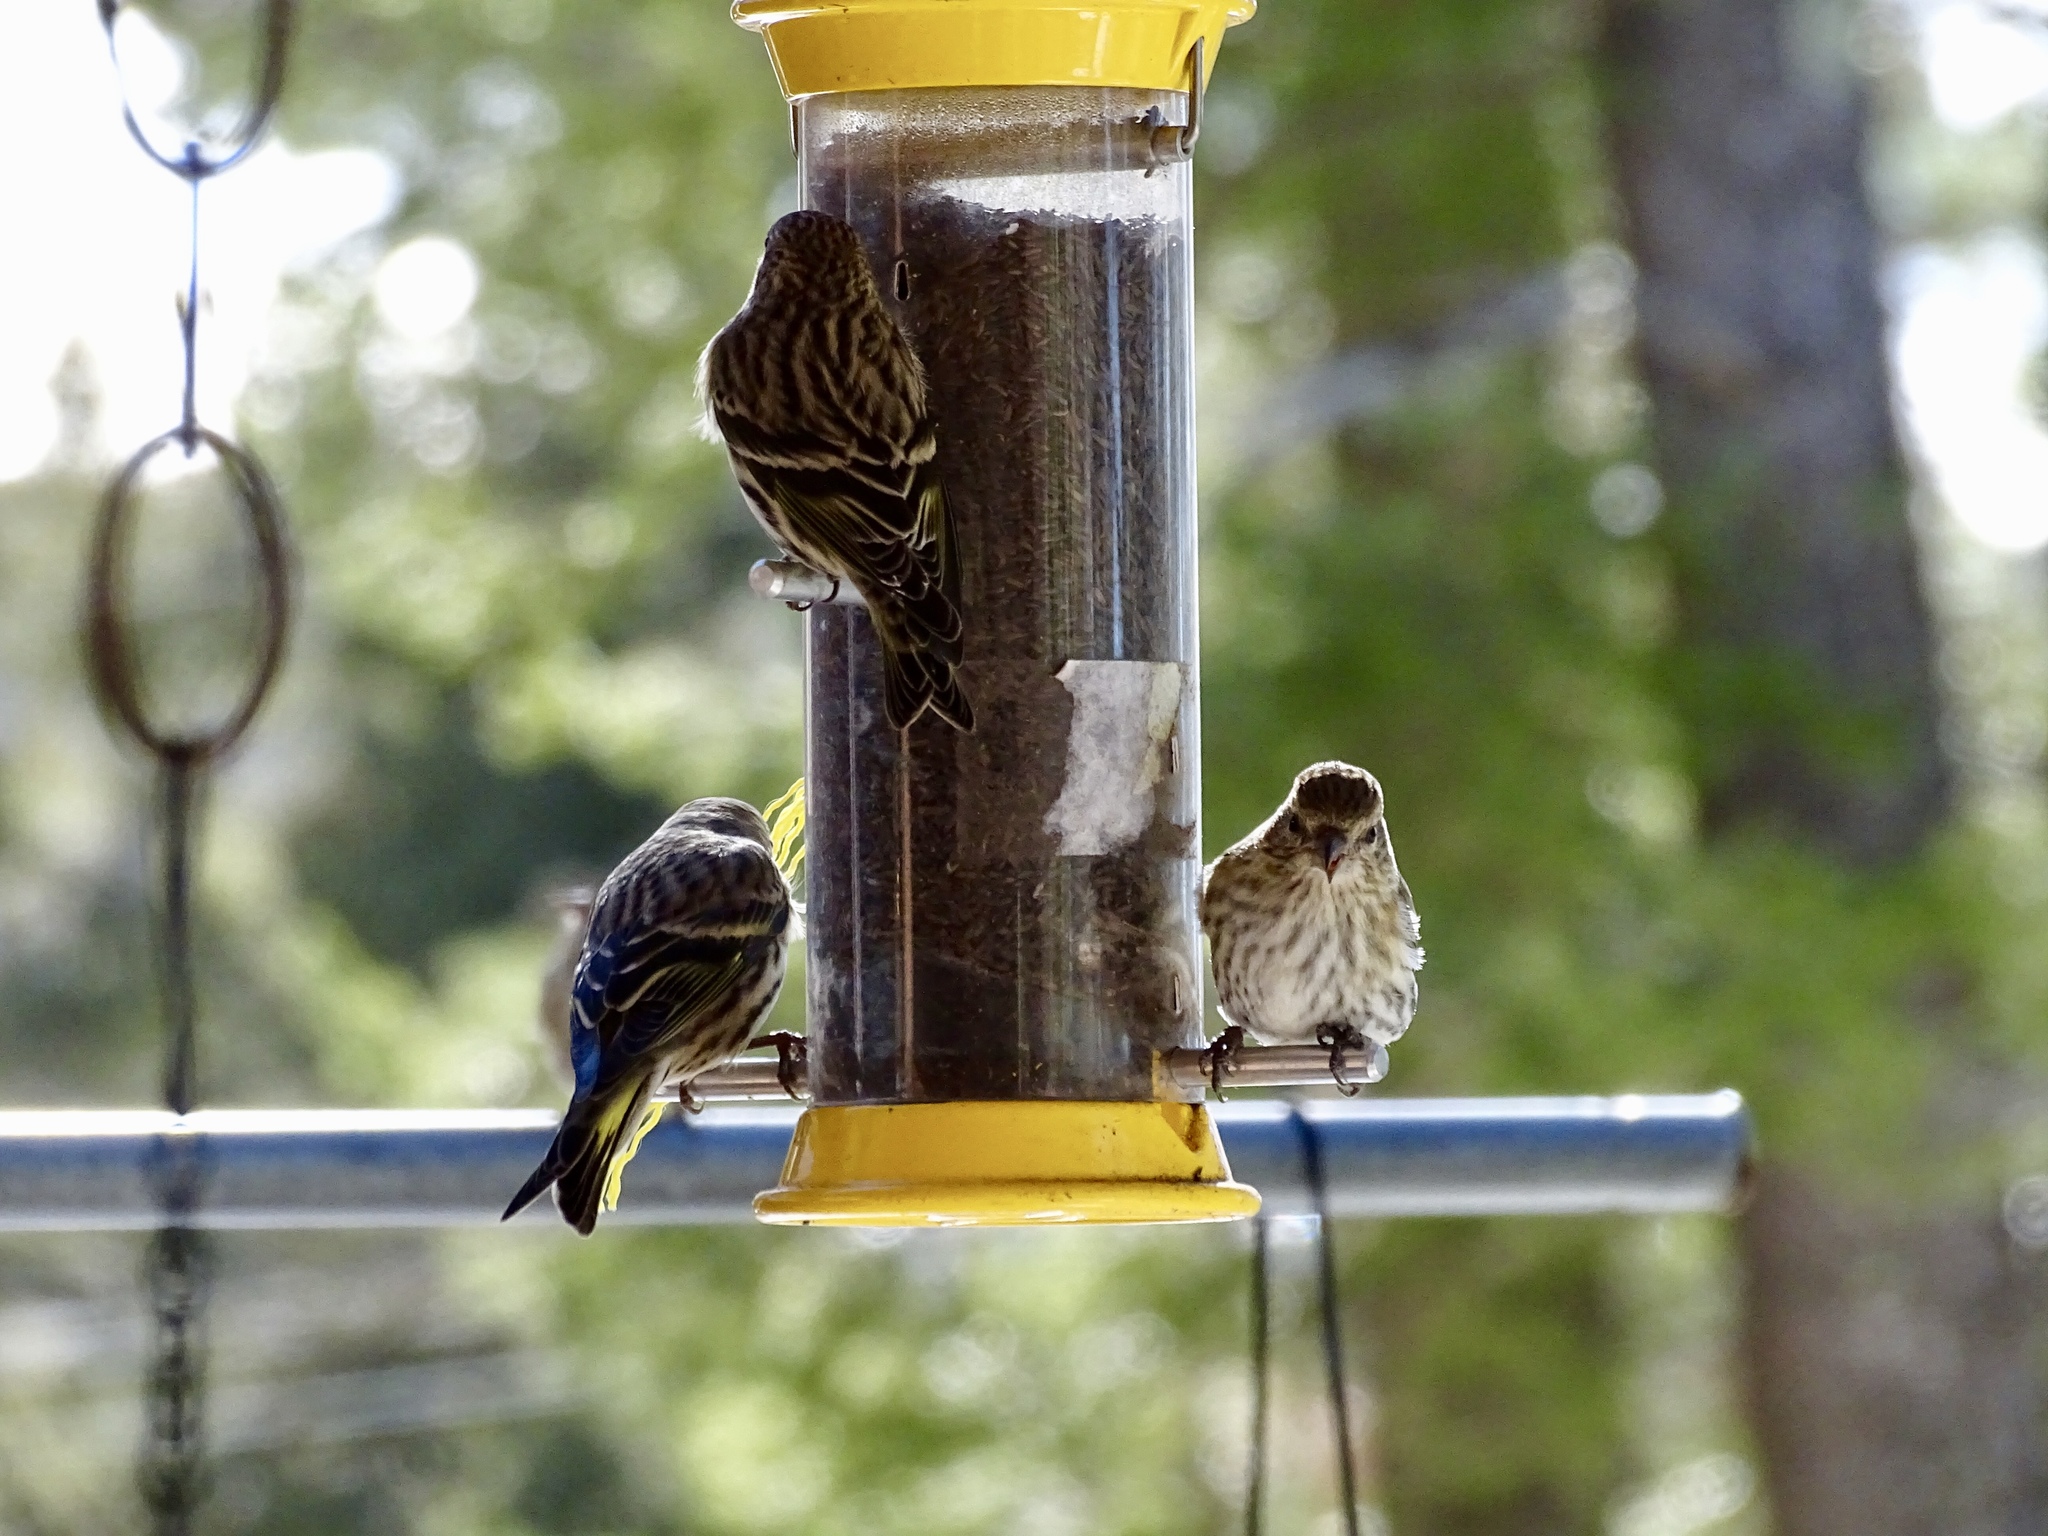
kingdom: Animalia
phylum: Chordata
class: Aves
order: Passeriformes
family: Fringillidae
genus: Spinus
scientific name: Spinus pinus
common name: Pine siskin
